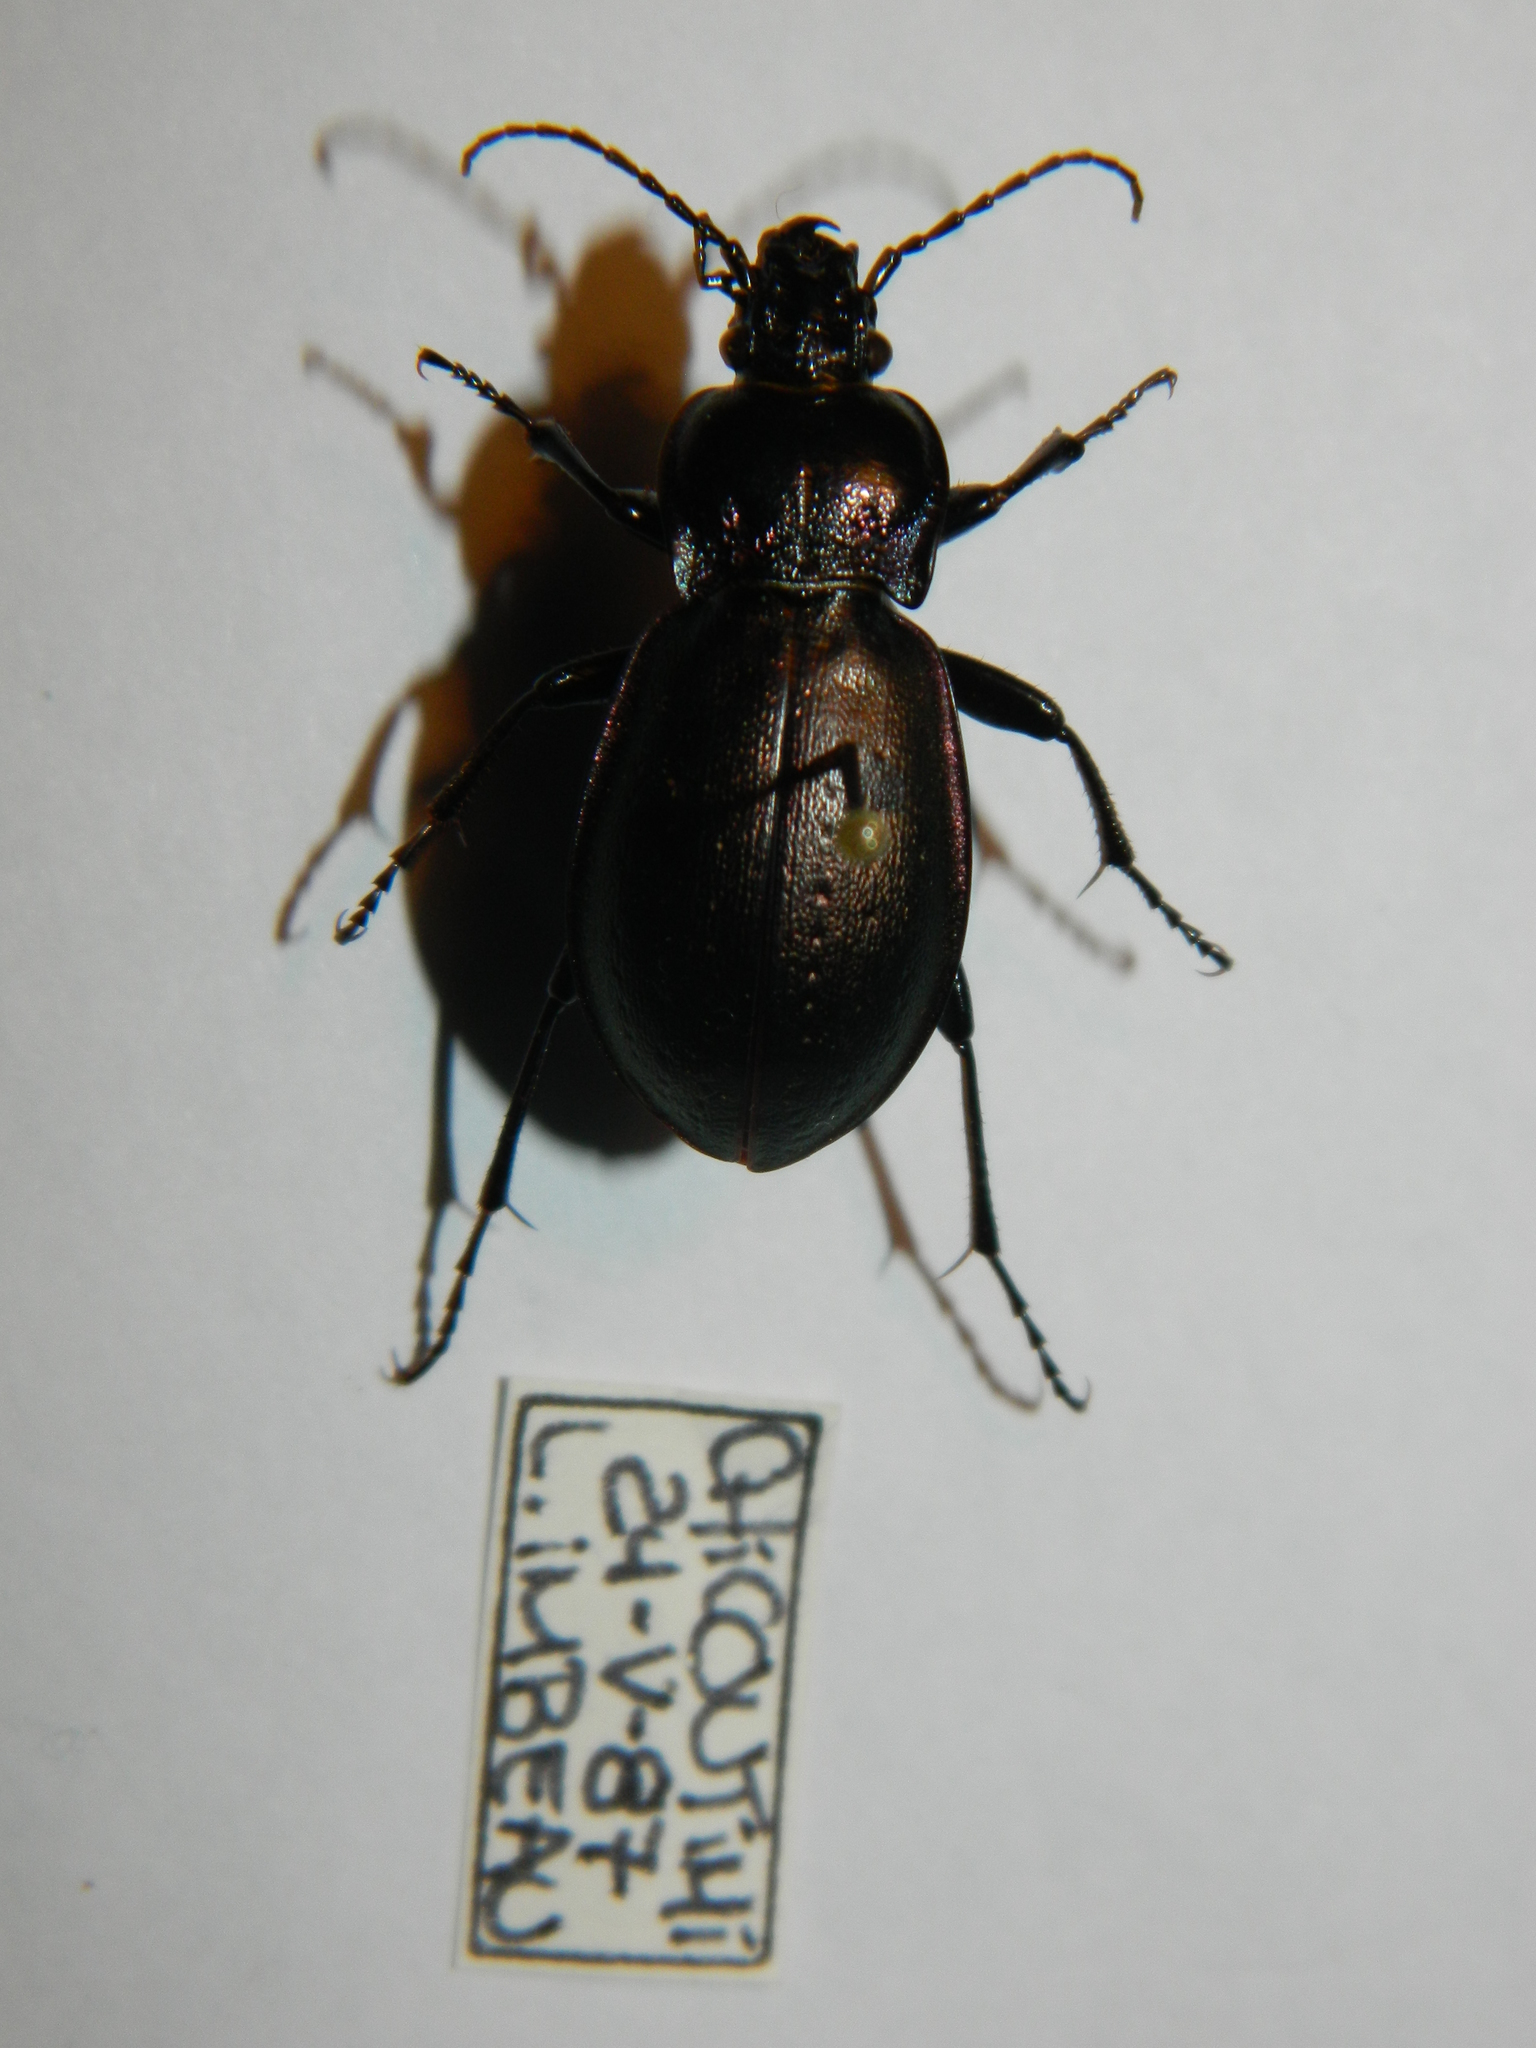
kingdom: Animalia
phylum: Arthropoda
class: Insecta
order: Coleoptera
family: Carabidae
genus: Carabus
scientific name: Carabus nemoralis
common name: European ground beetle
